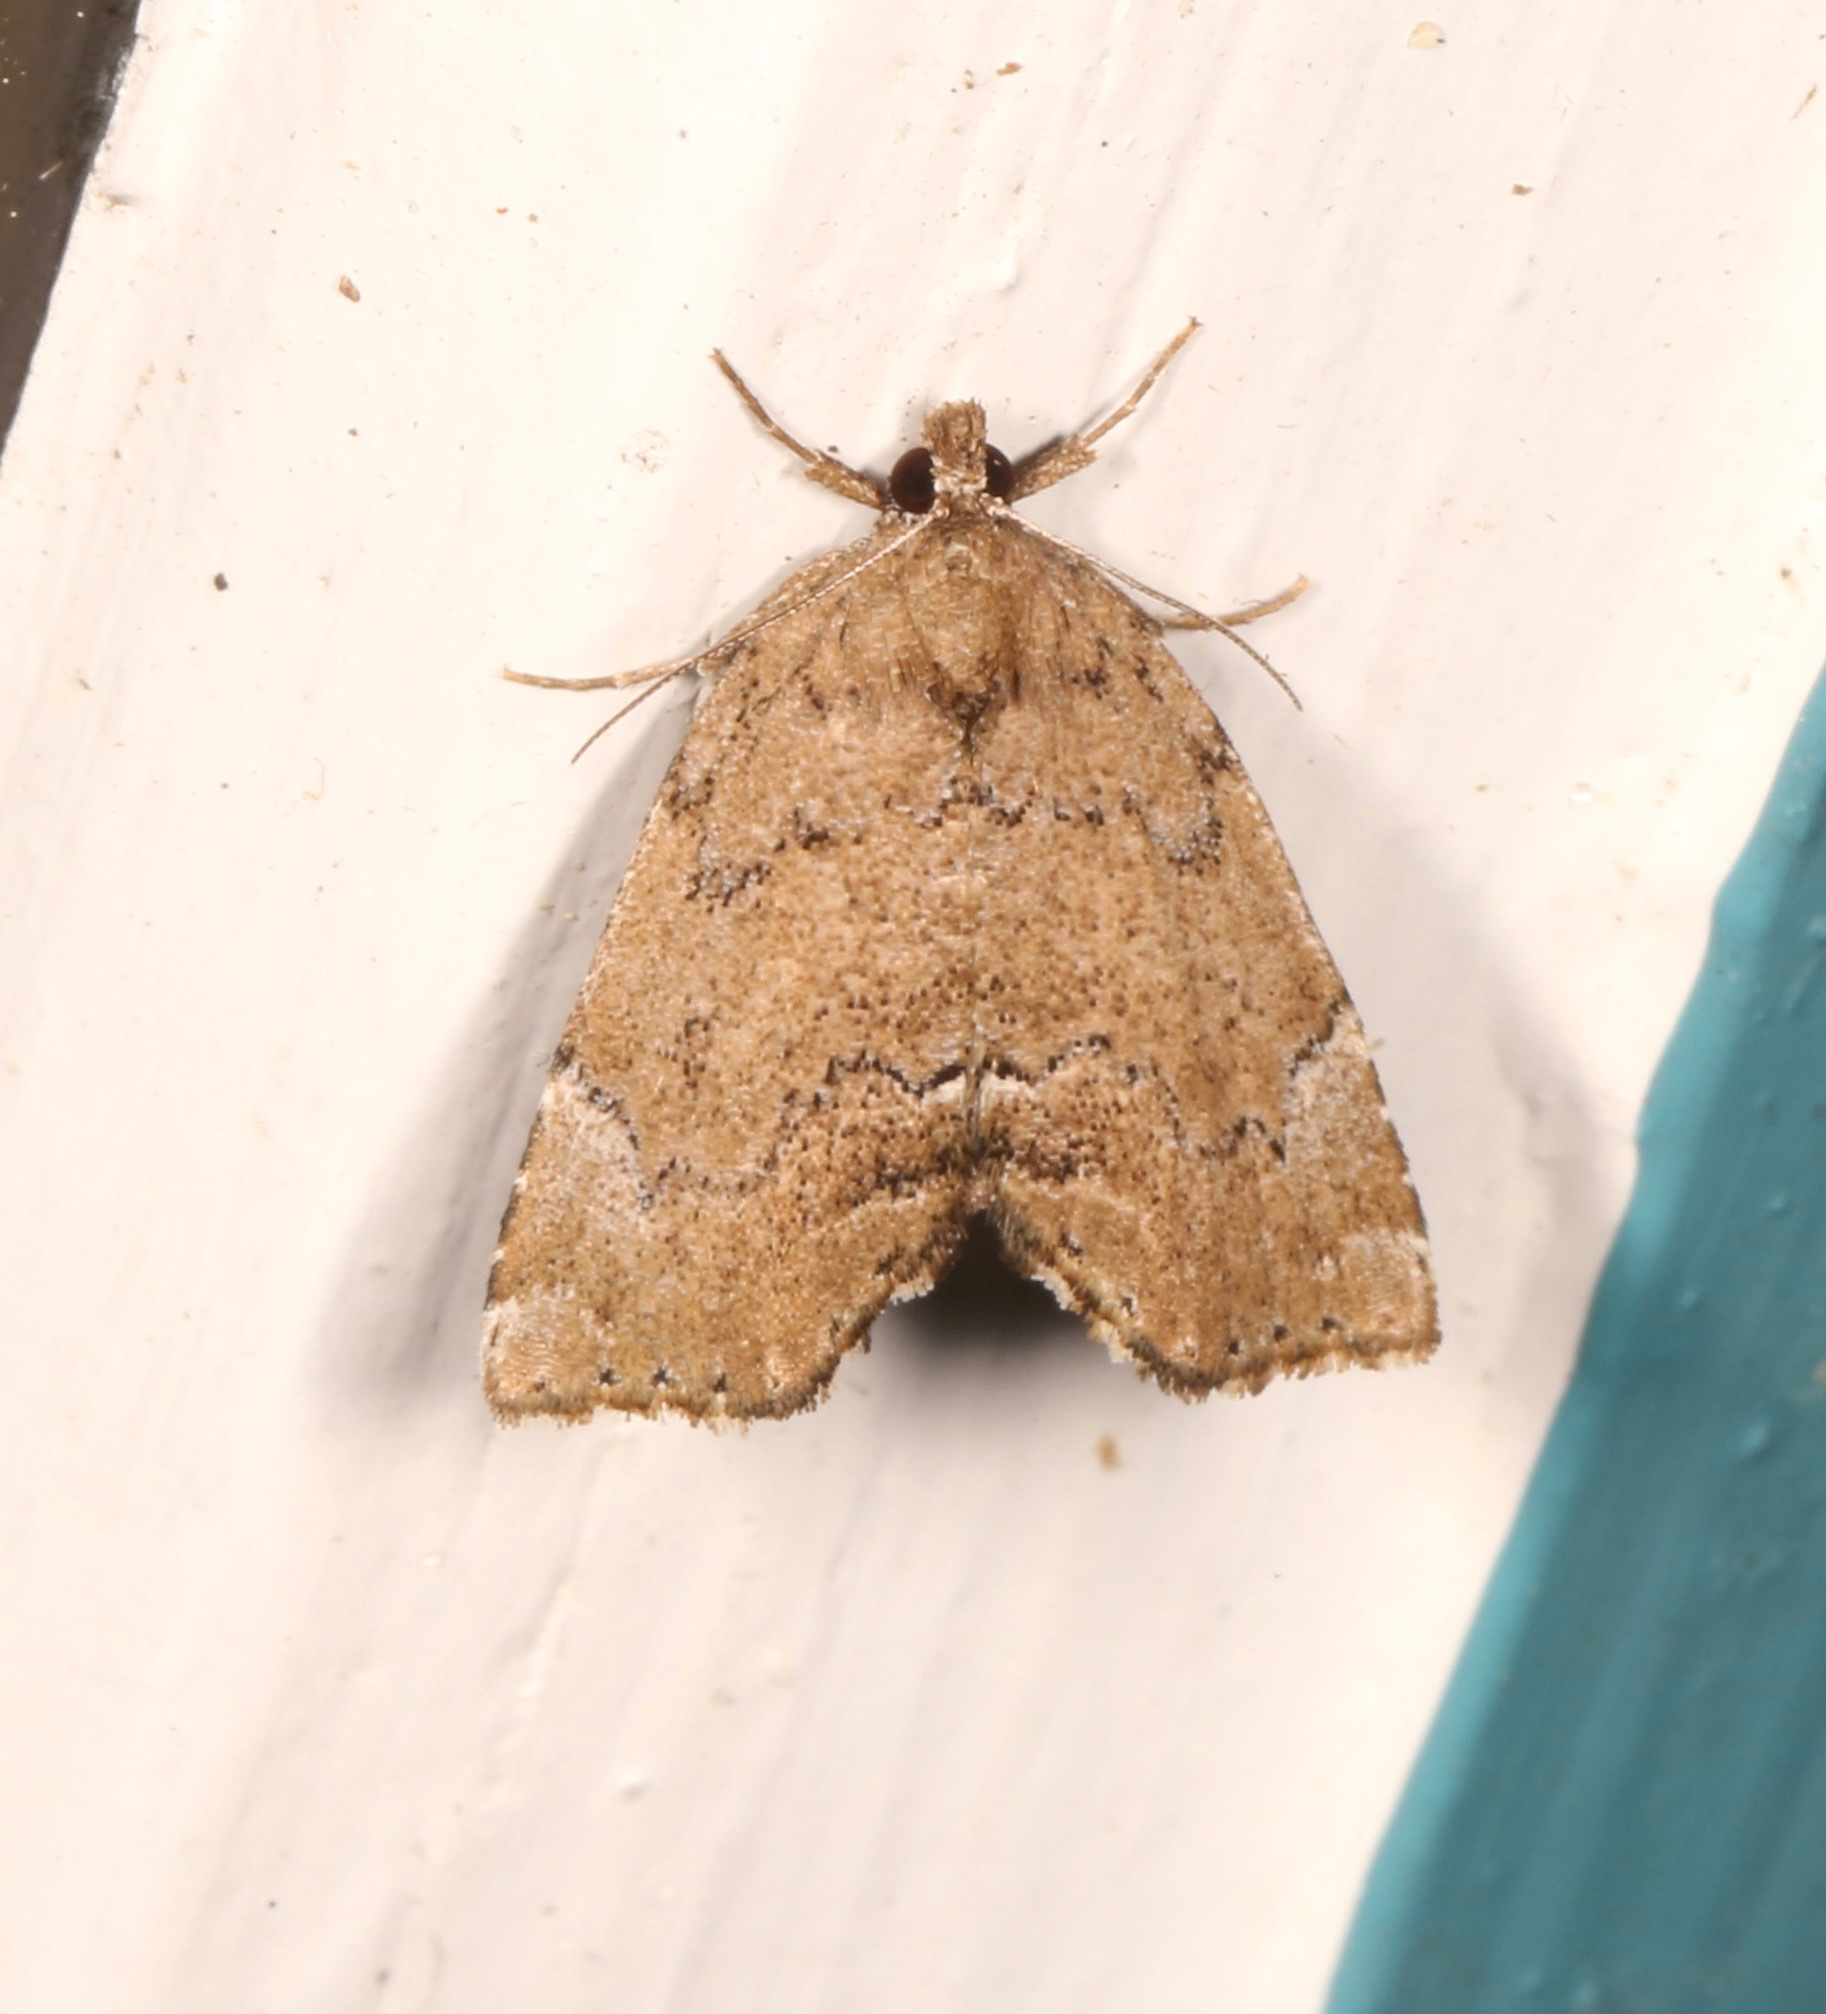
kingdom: Animalia
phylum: Arthropoda
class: Insecta
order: Lepidoptera
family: Erebidae
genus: Cutina
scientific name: Cutina aluticolor
